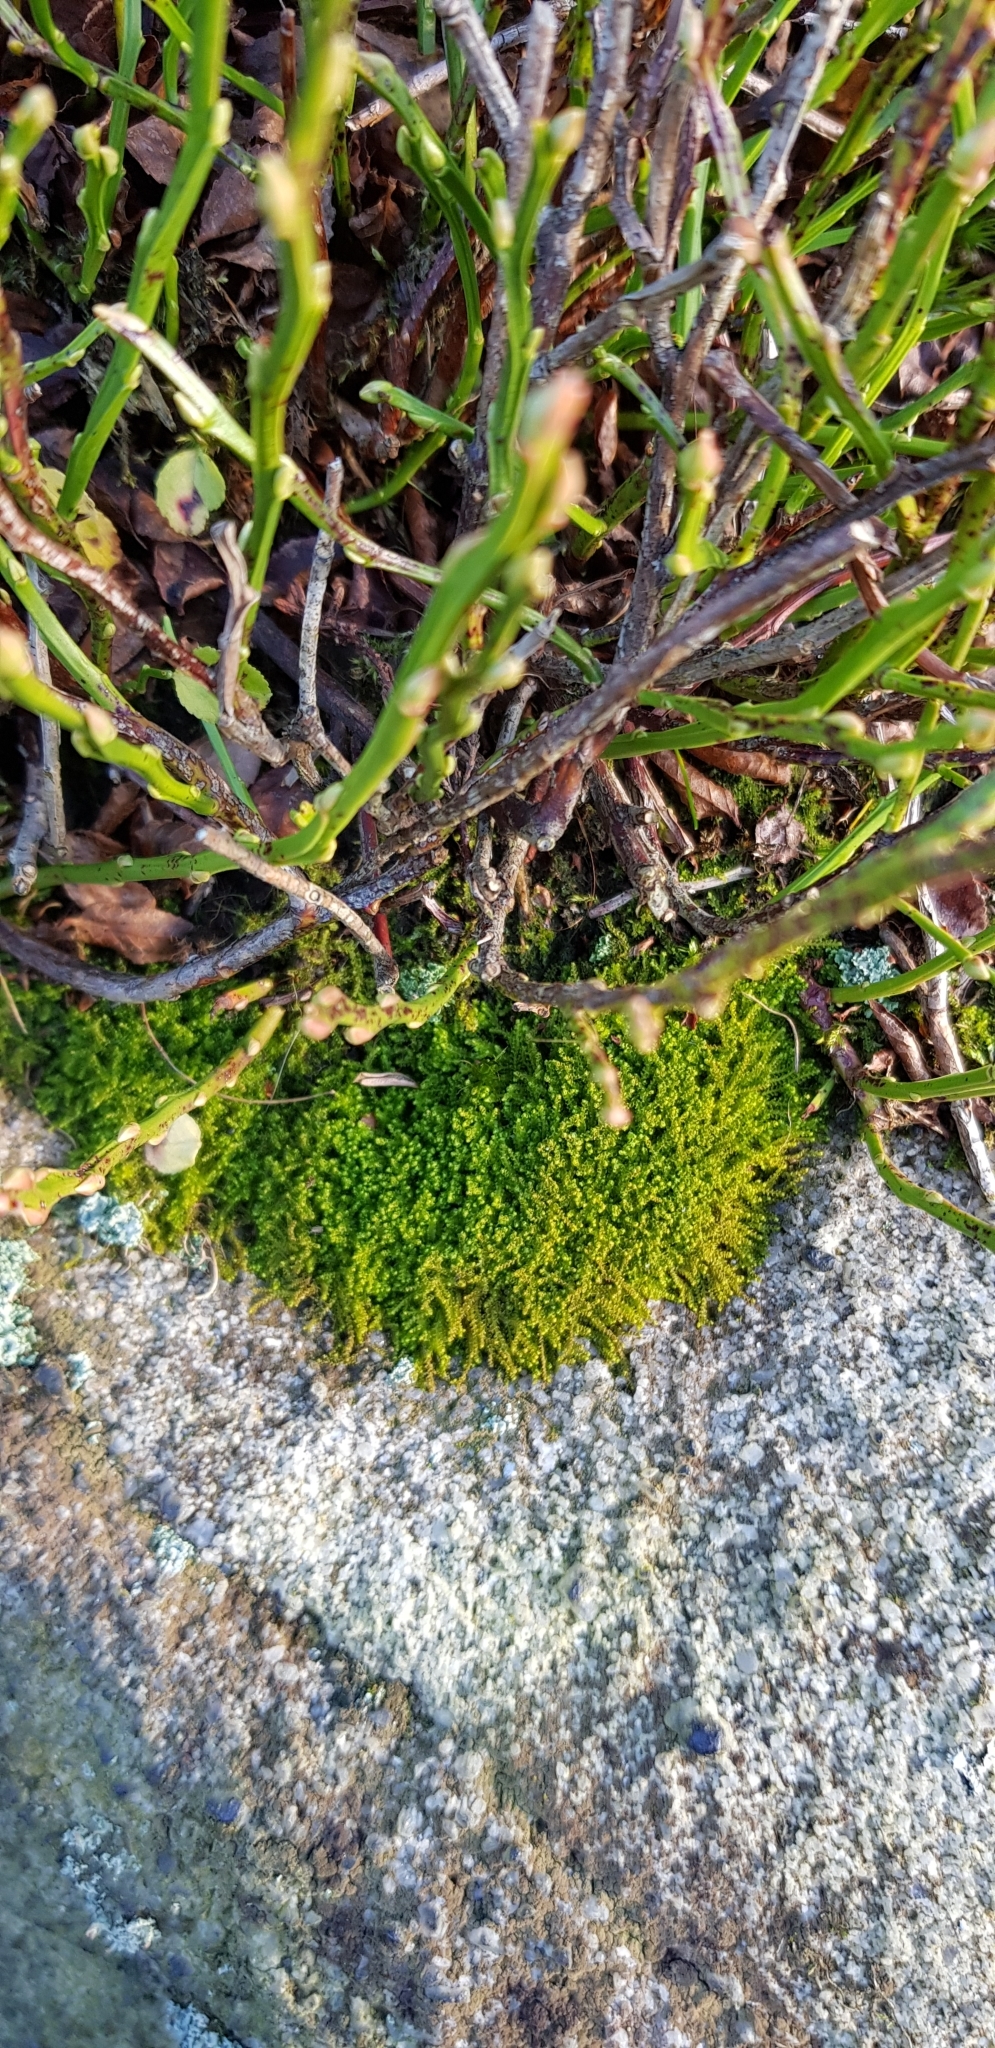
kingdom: Plantae
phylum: Marchantiophyta
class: Jungermanniopsida
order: Jungermanniales
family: Lophoziaceae
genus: Trilophozia
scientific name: Trilophozia quinquedentata
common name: Large notchwort
